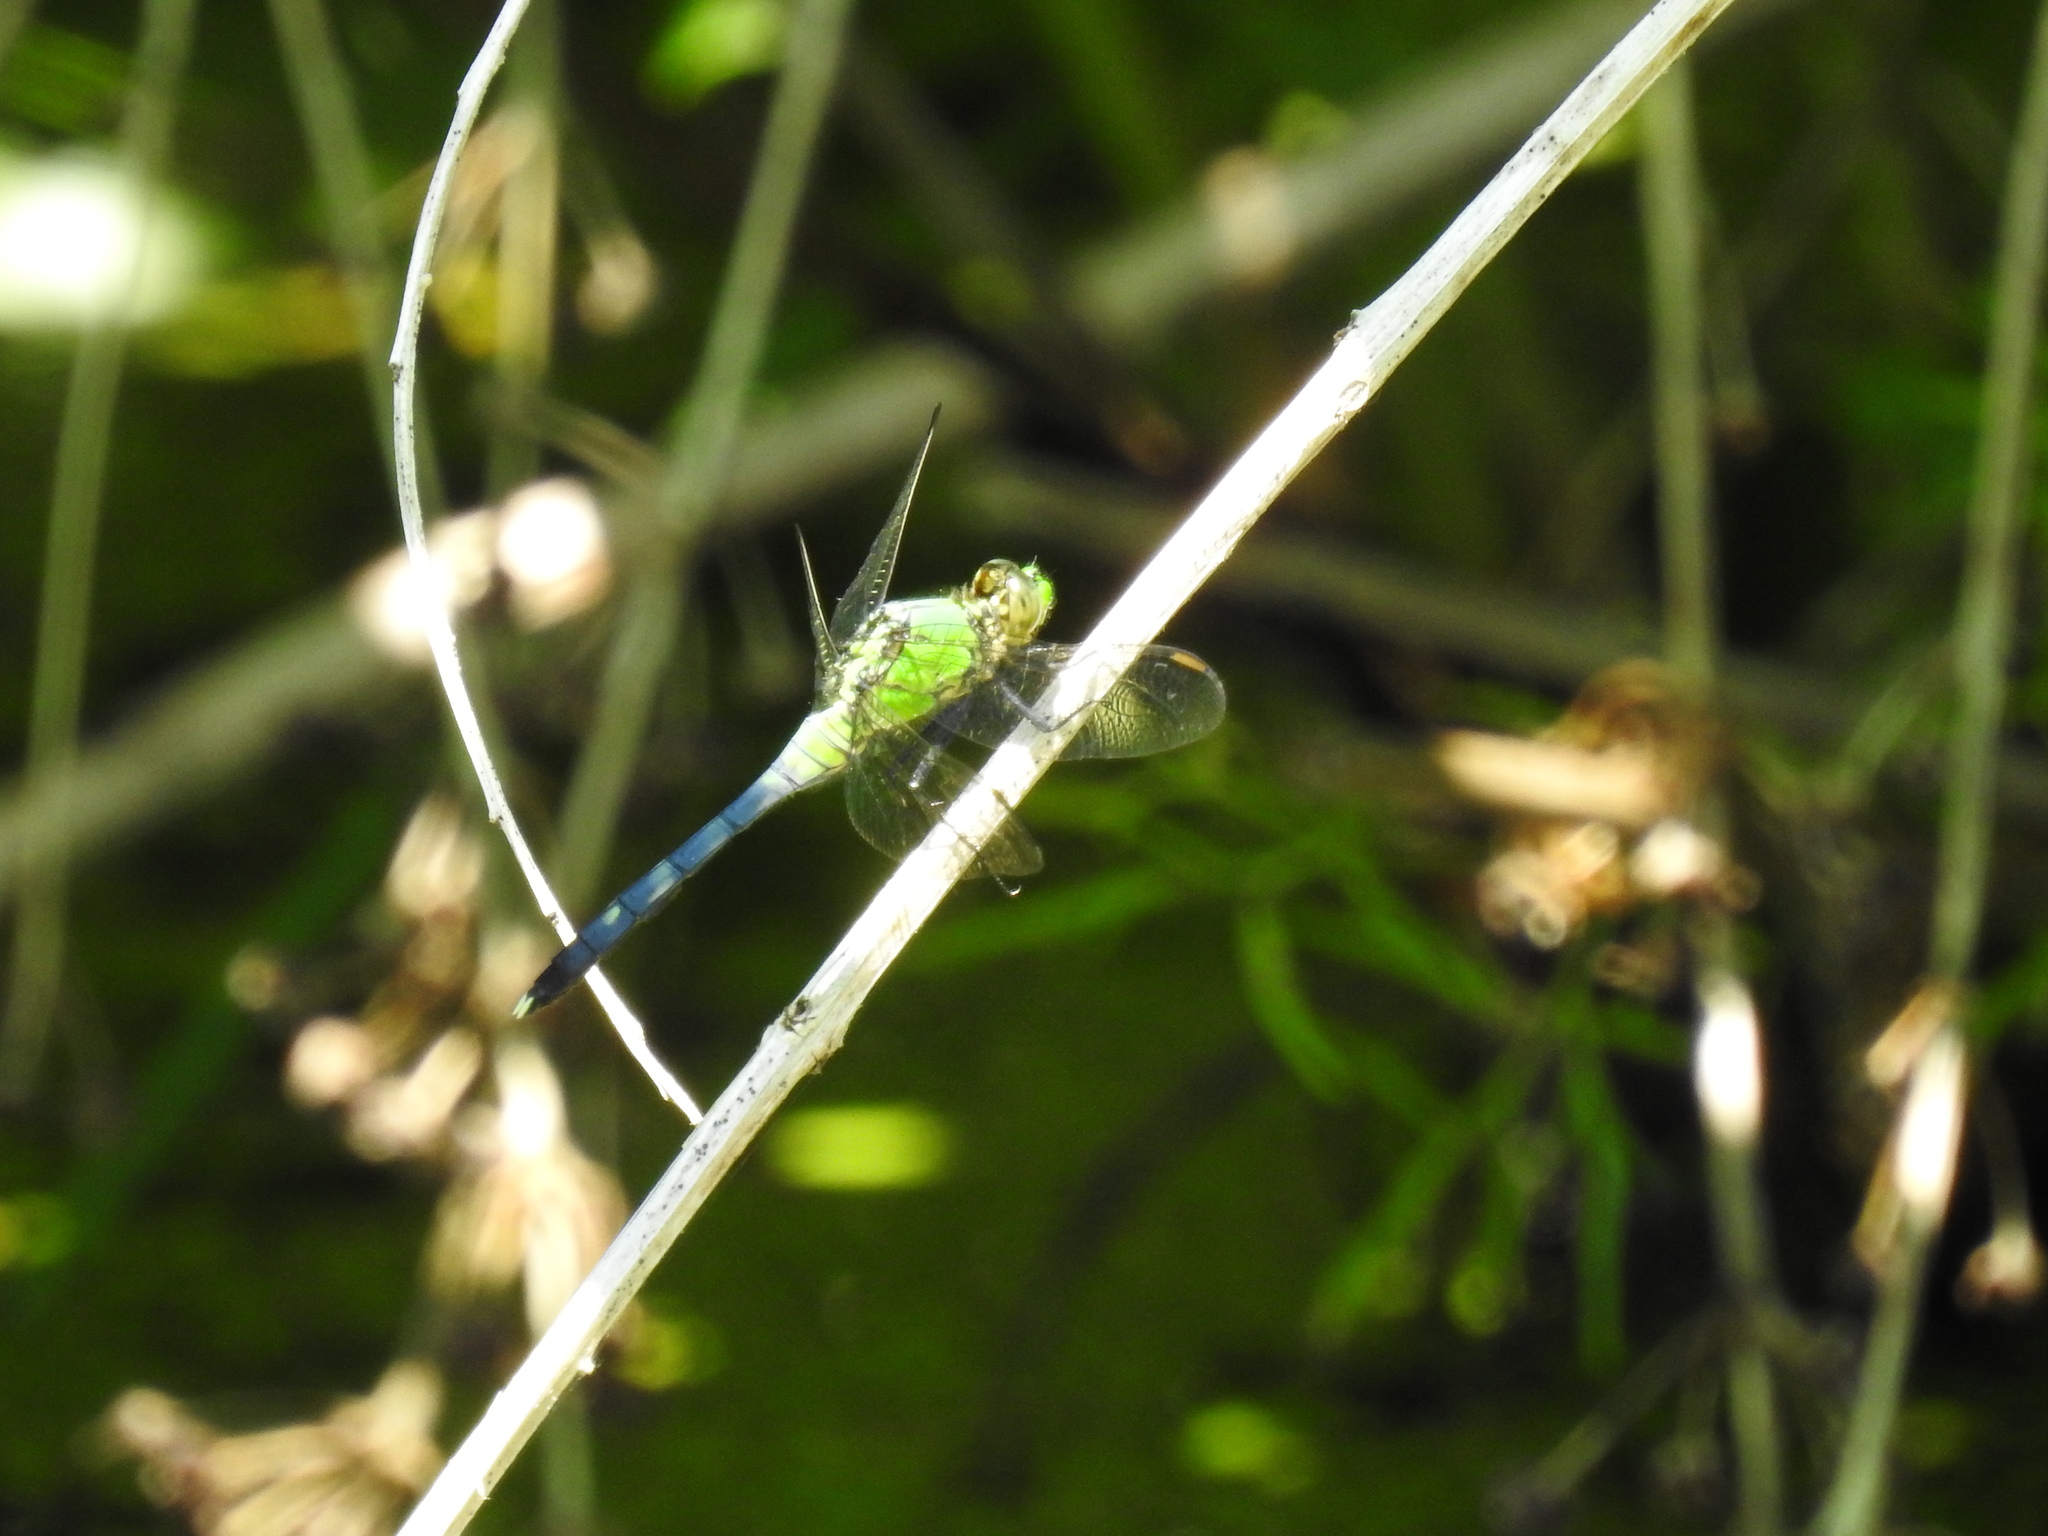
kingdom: Animalia
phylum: Arthropoda
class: Insecta
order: Odonata
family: Libellulidae
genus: Erythemis
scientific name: Erythemis simplicicollis
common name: Eastern pondhawk
